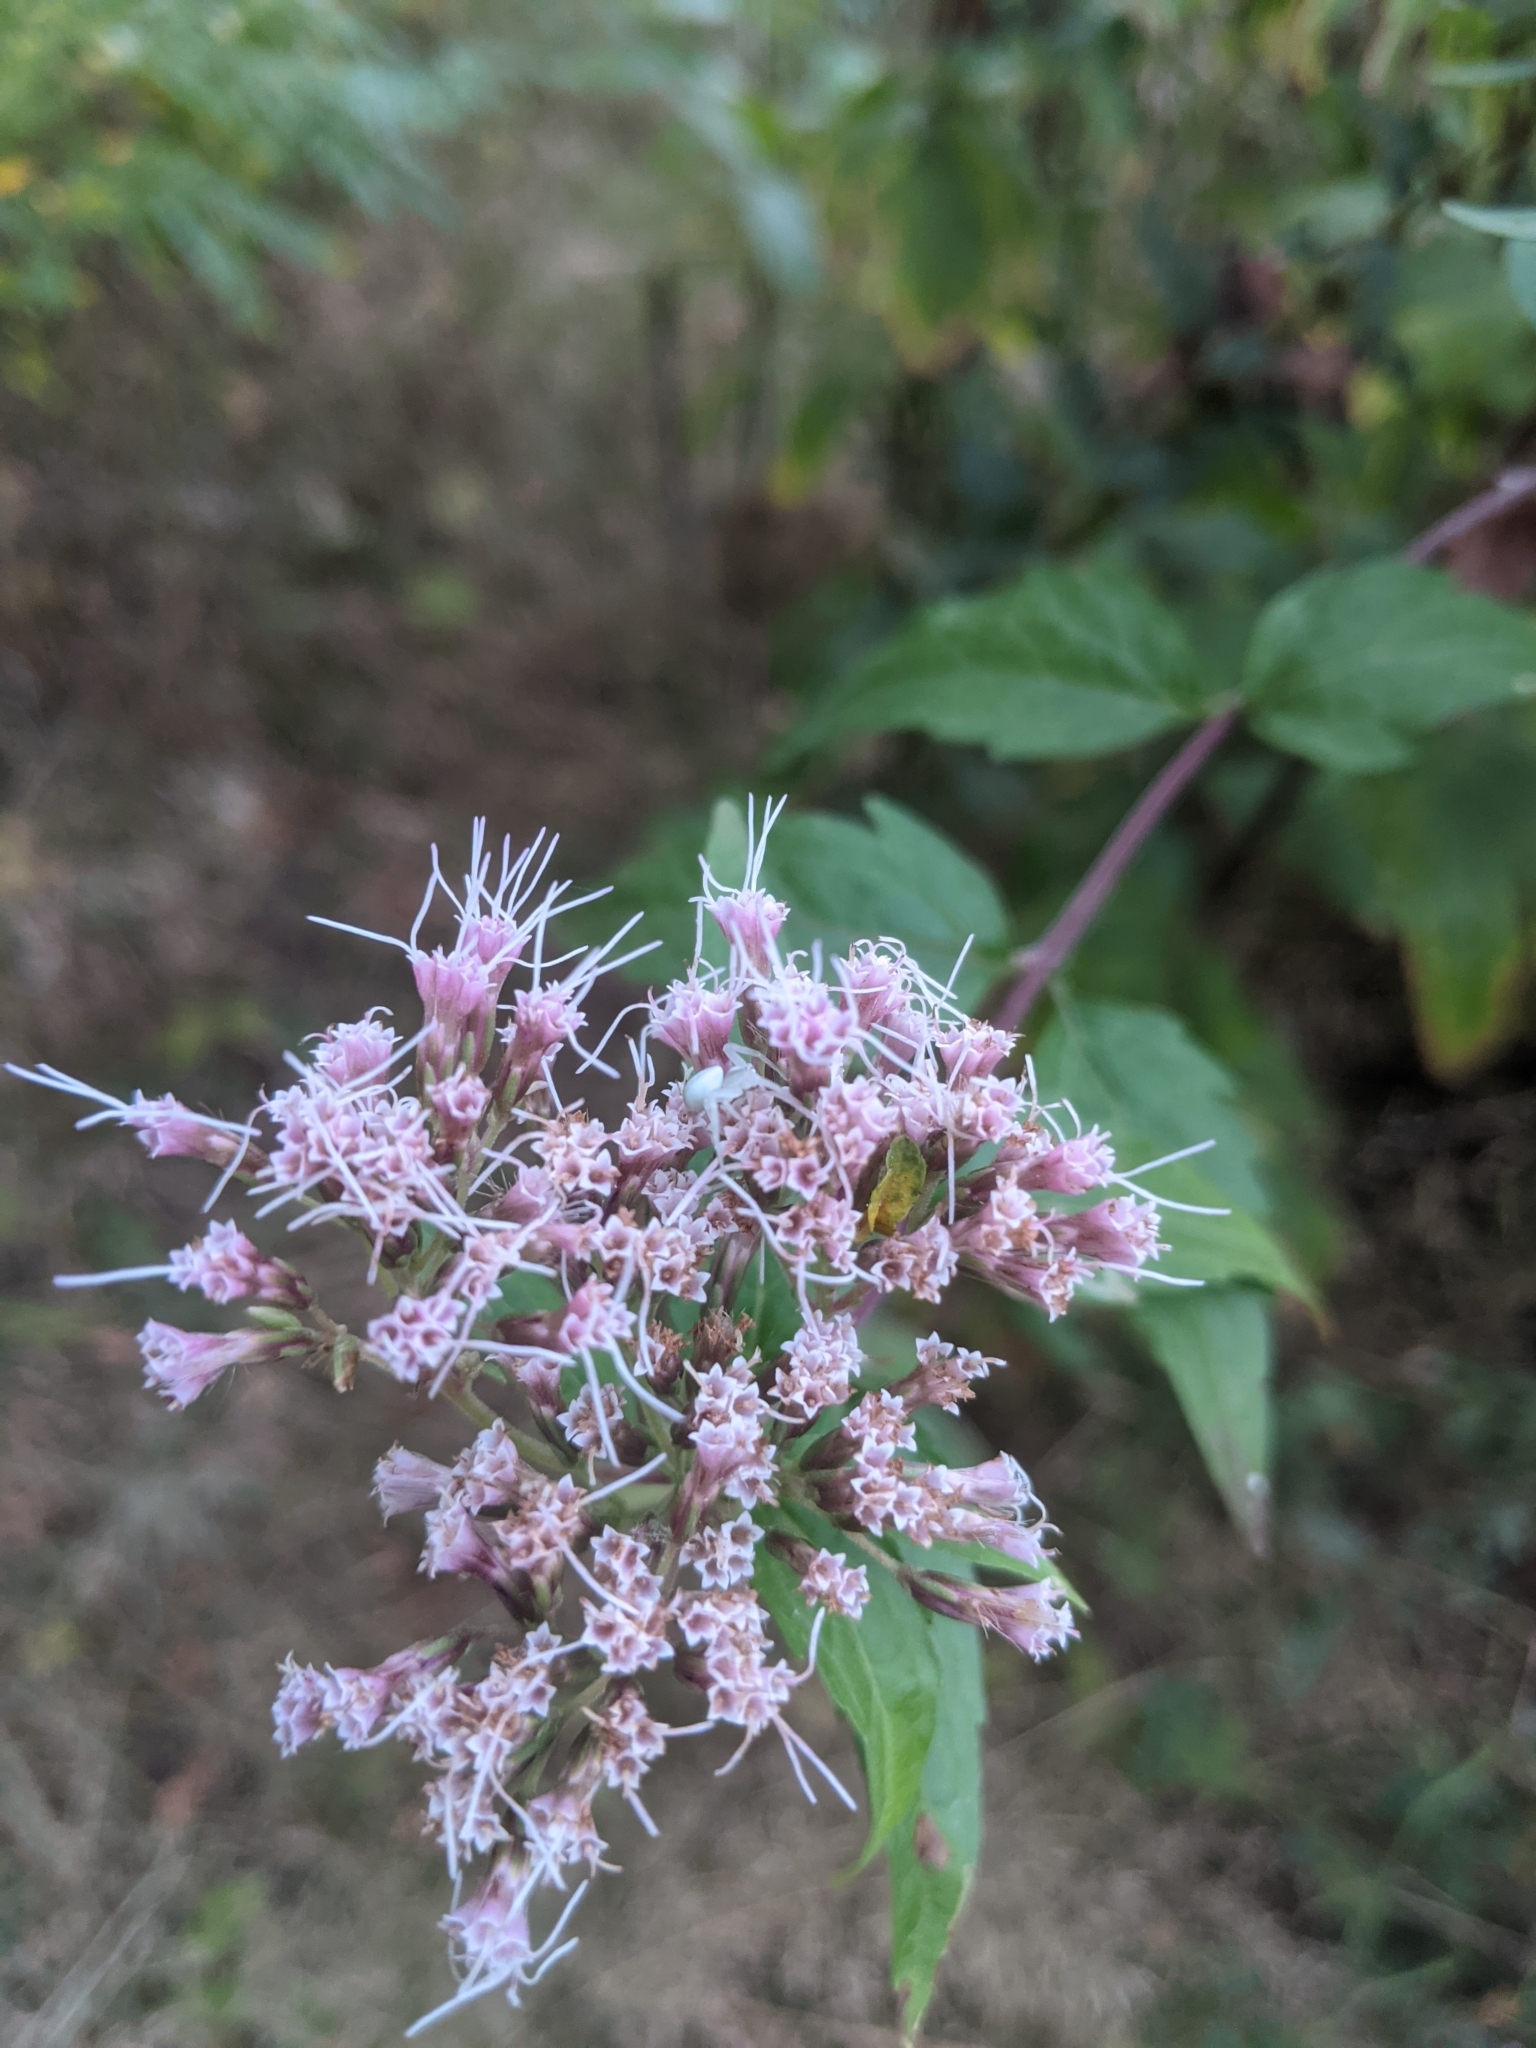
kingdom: Plantae
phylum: Tracheophyta
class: Magnoliopsida
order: Asterales
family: Asteraceae
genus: Eupatorium
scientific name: Eupatorium cannabinum
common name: Hemp-agrimony
